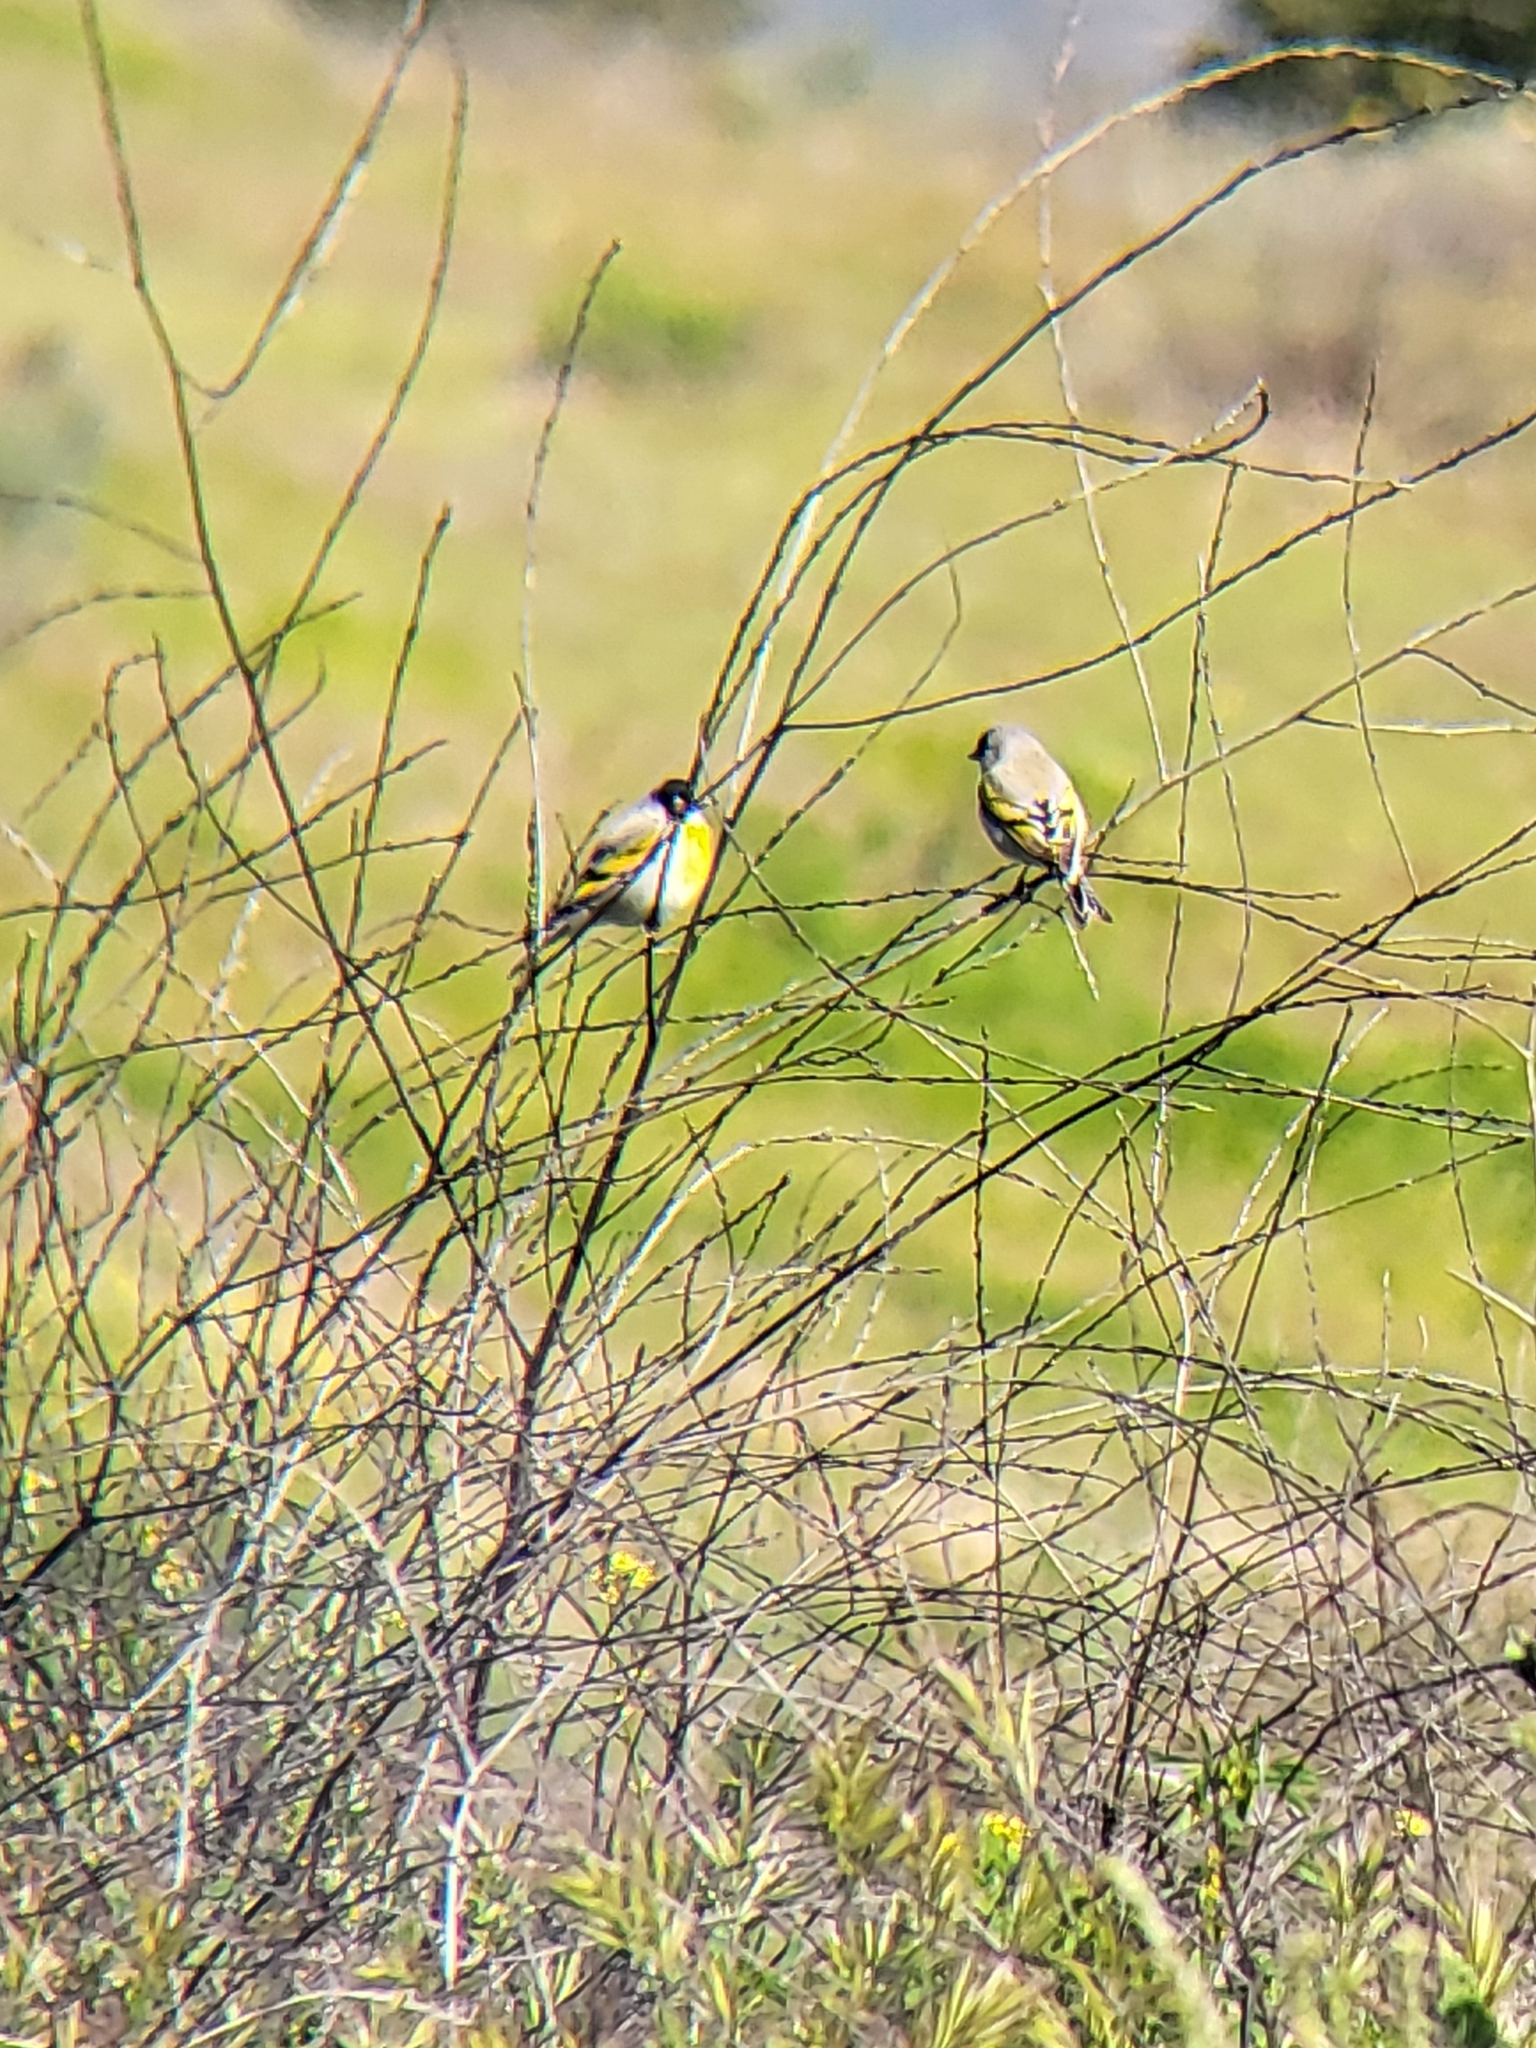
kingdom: Animalia
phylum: Chordata
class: Aves
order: Passeriformes
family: Fringillidae
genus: Spinus
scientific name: Spinus lawrencei
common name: Lawrence's goldfinch
